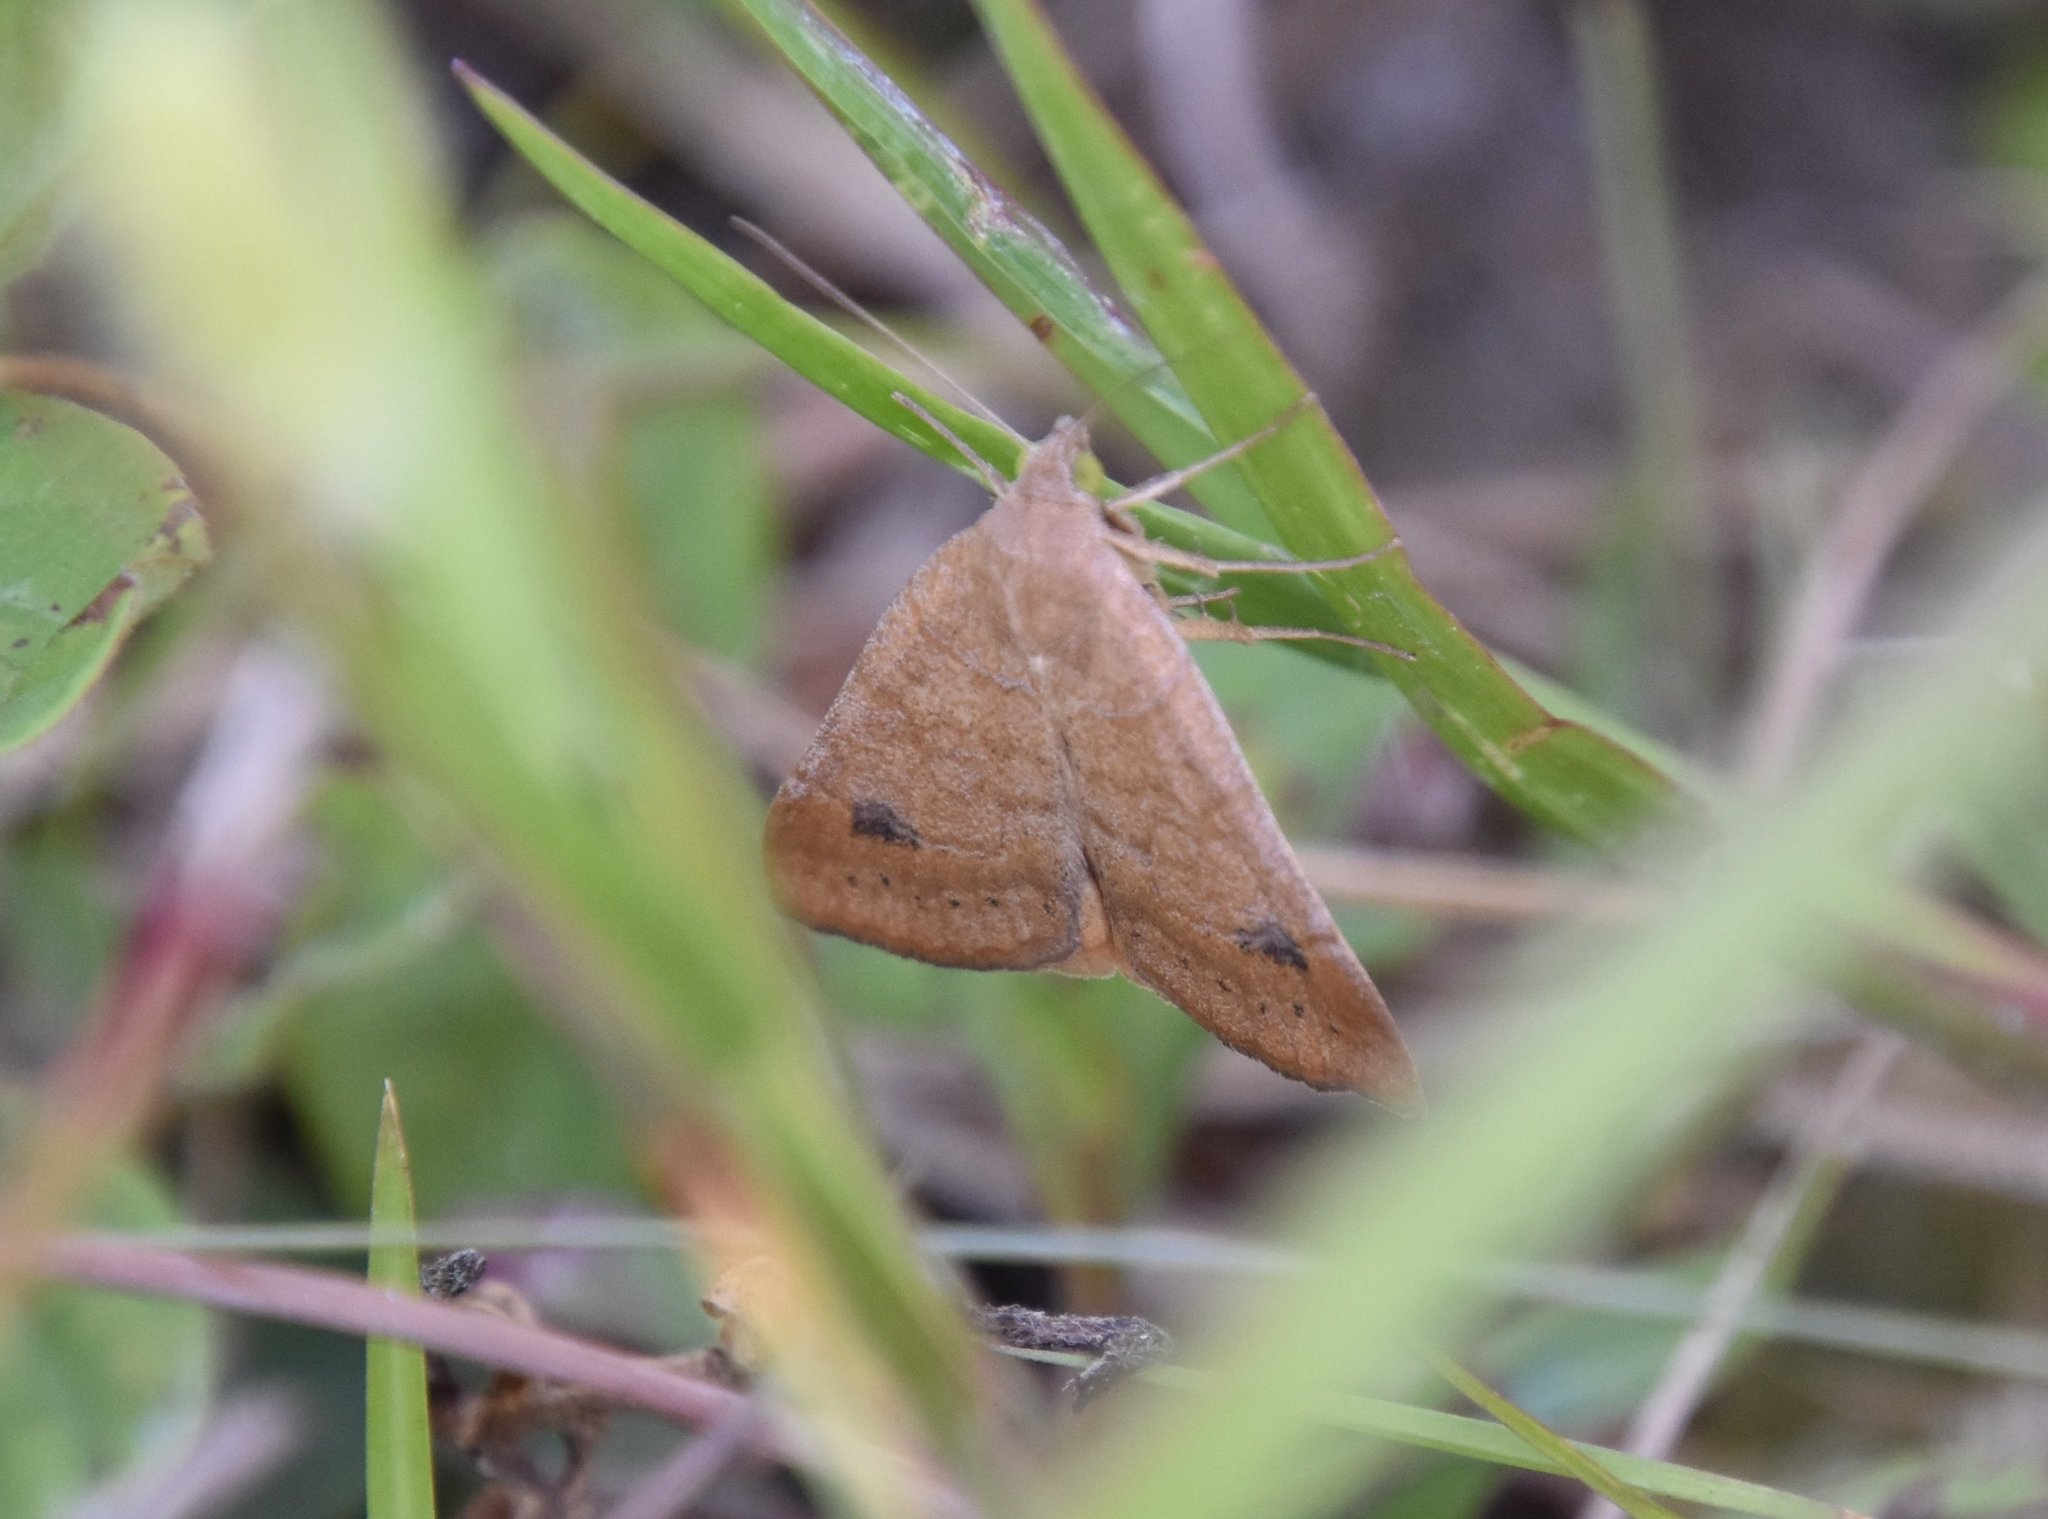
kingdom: Animalia
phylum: Arthropoda
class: Insecta
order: Lepidoptera
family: Erebidae
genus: Caenurgia
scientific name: Caenurgia chloropha
